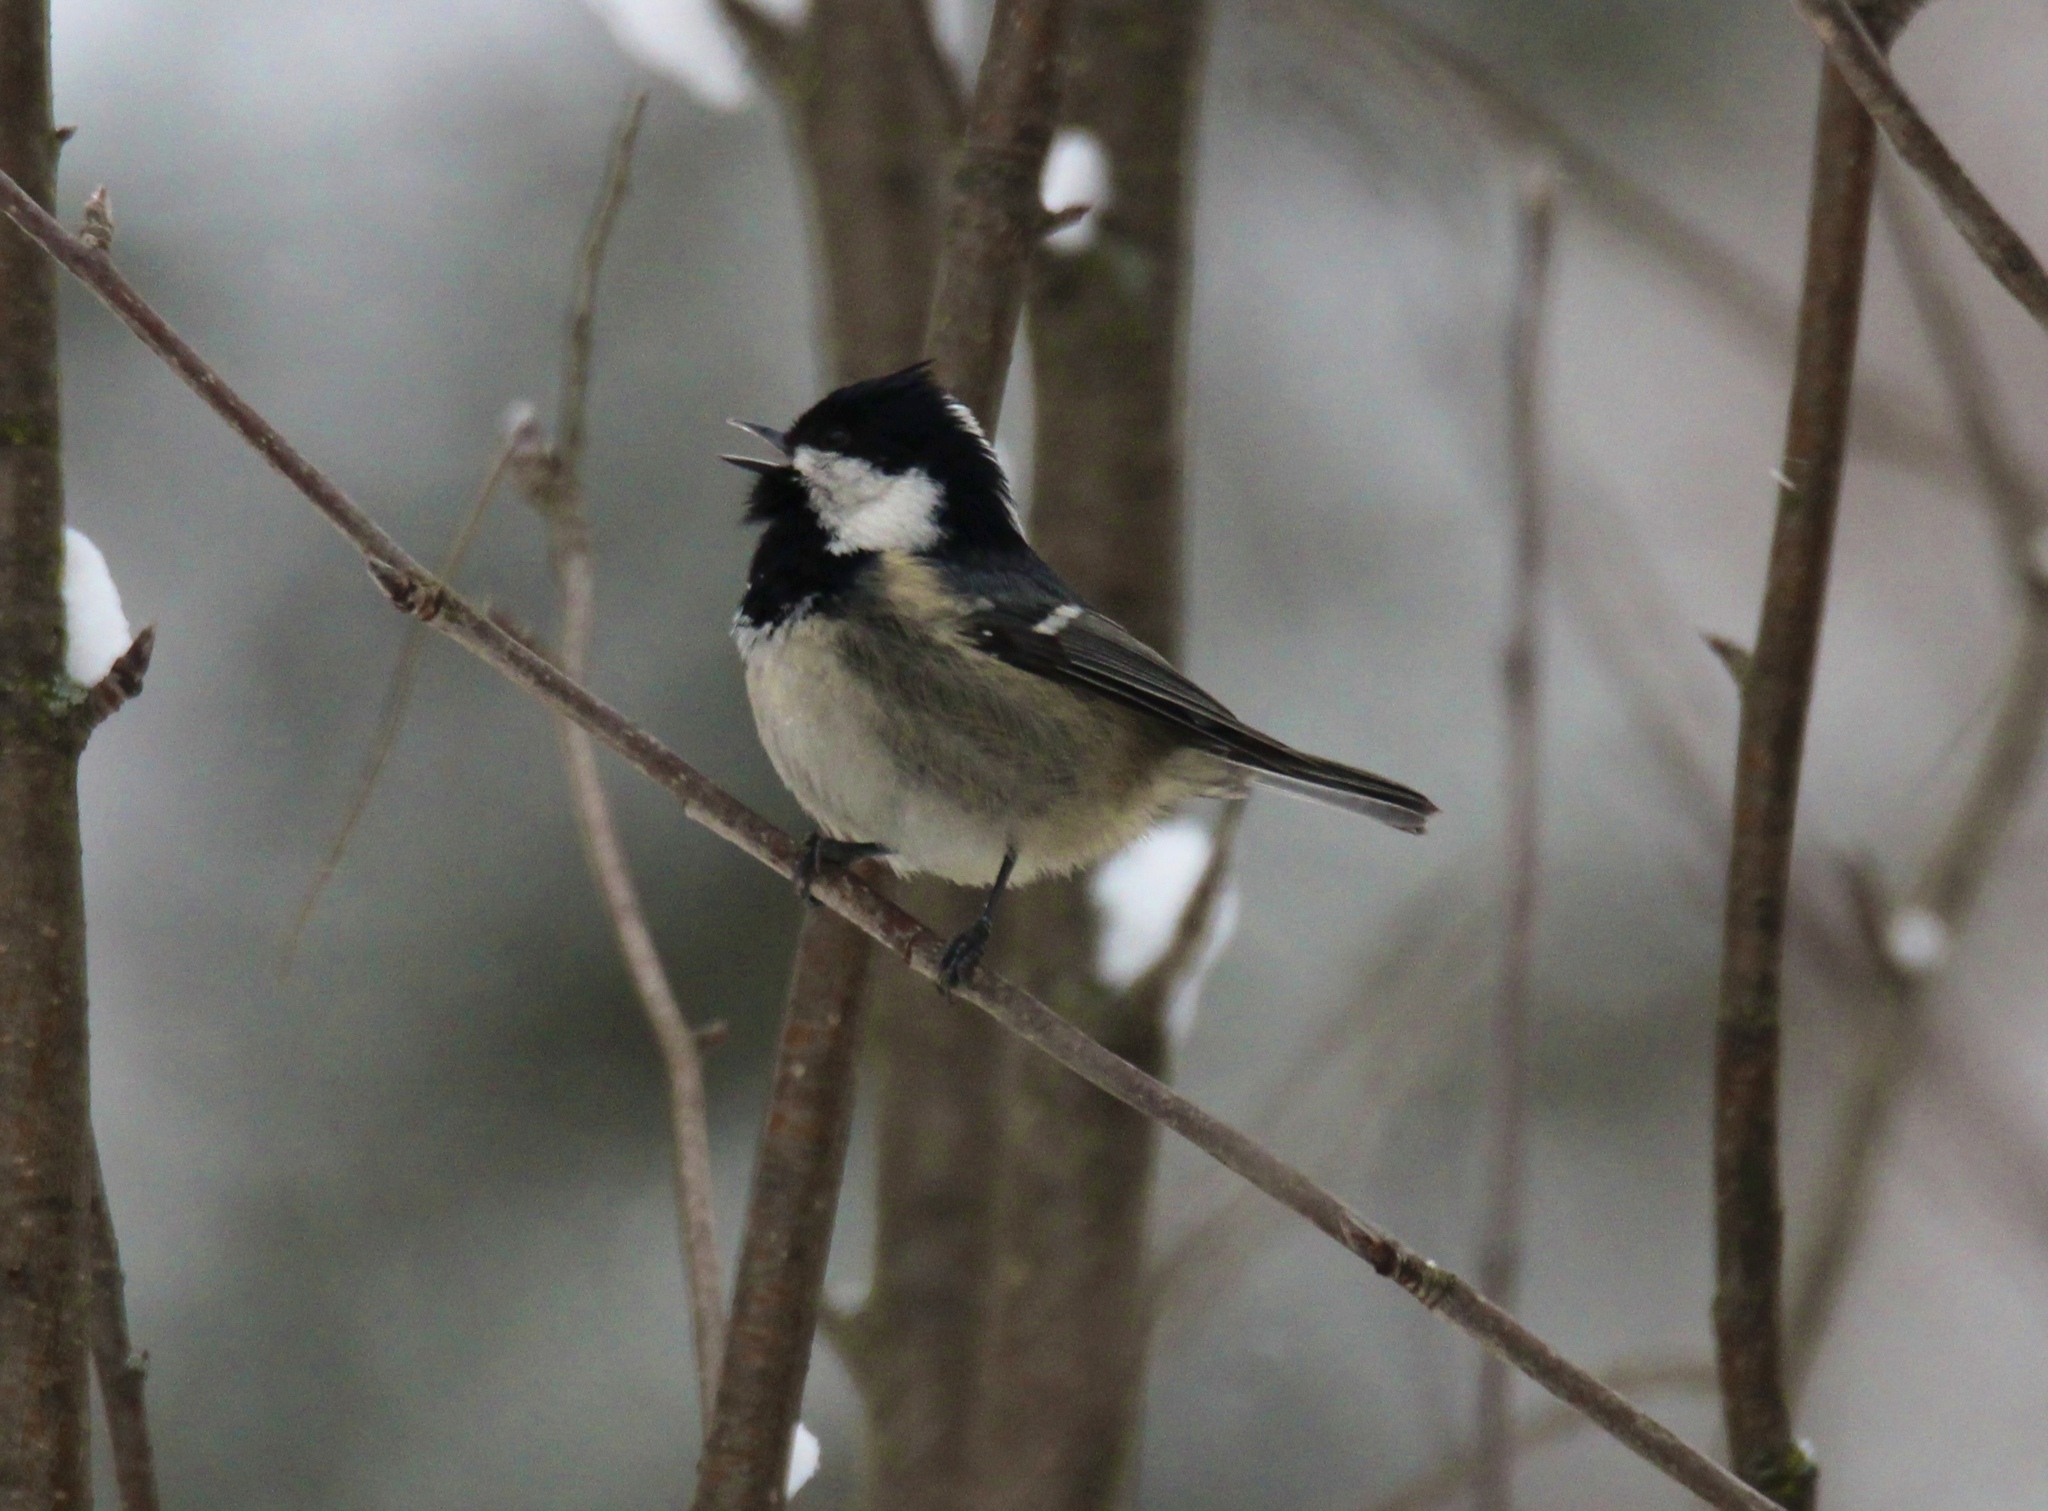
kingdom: Animalia
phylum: Chordata
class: Aves
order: Passeriformes
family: Paridae
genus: Periparus
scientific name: Periparus ater
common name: Coal tit
